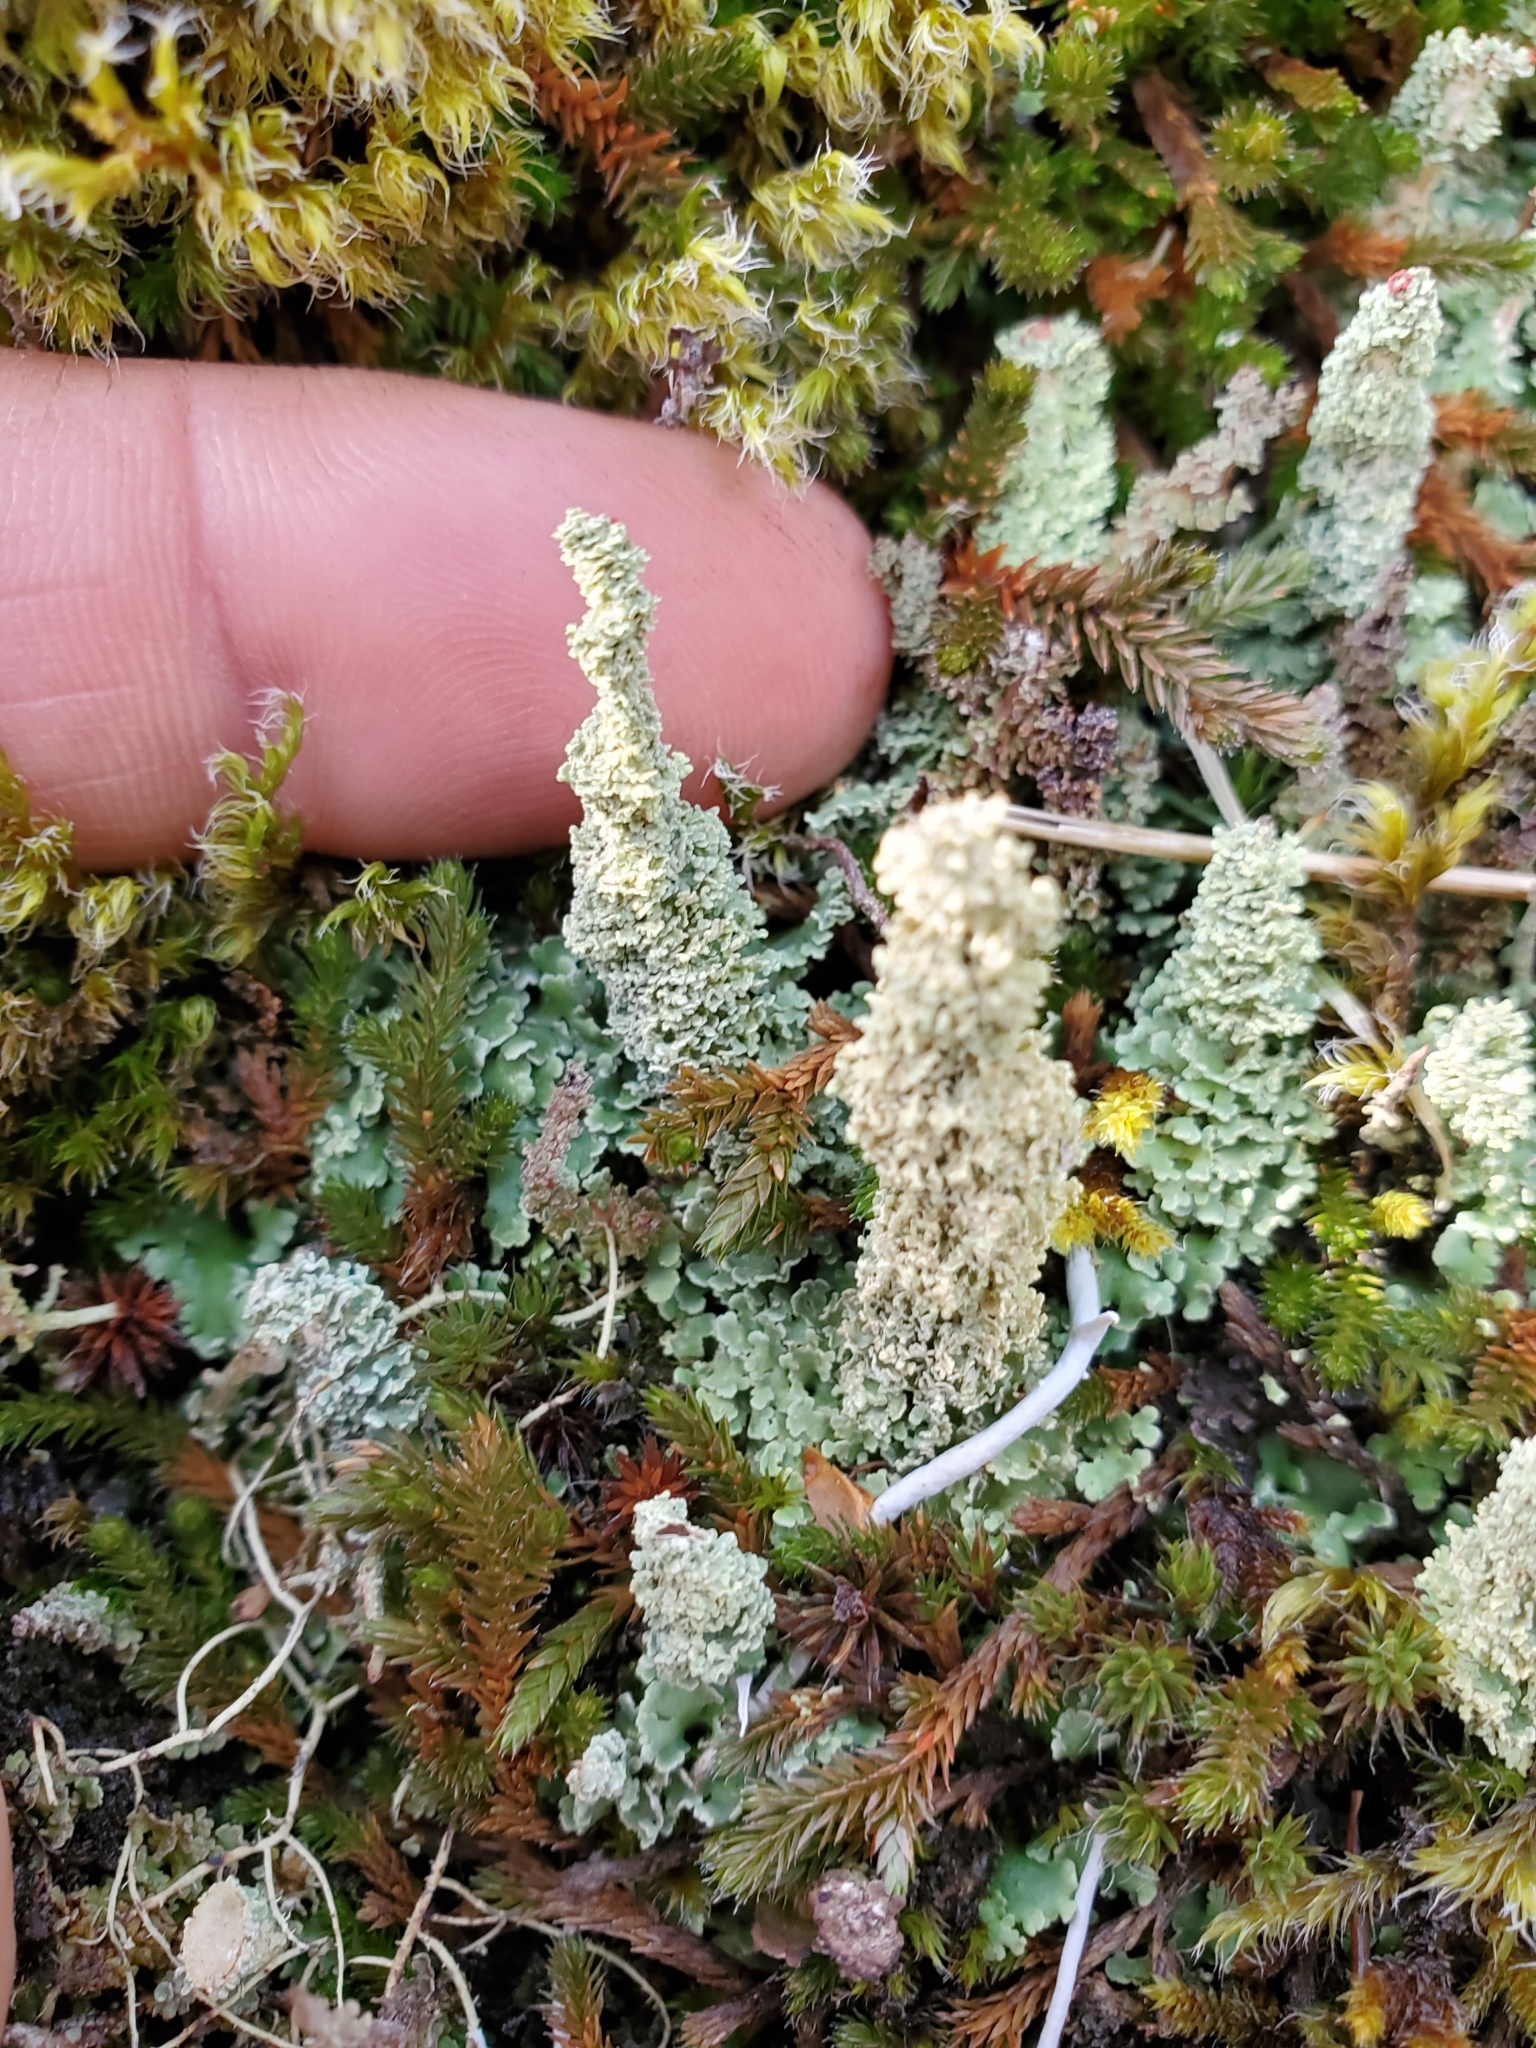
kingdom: Fungi
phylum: Ascomycota
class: Lecanoromycetes
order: Lecanorales
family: Cladoniaceae
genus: Cladonia
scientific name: Cladonia squamosa
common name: Dragon horn
